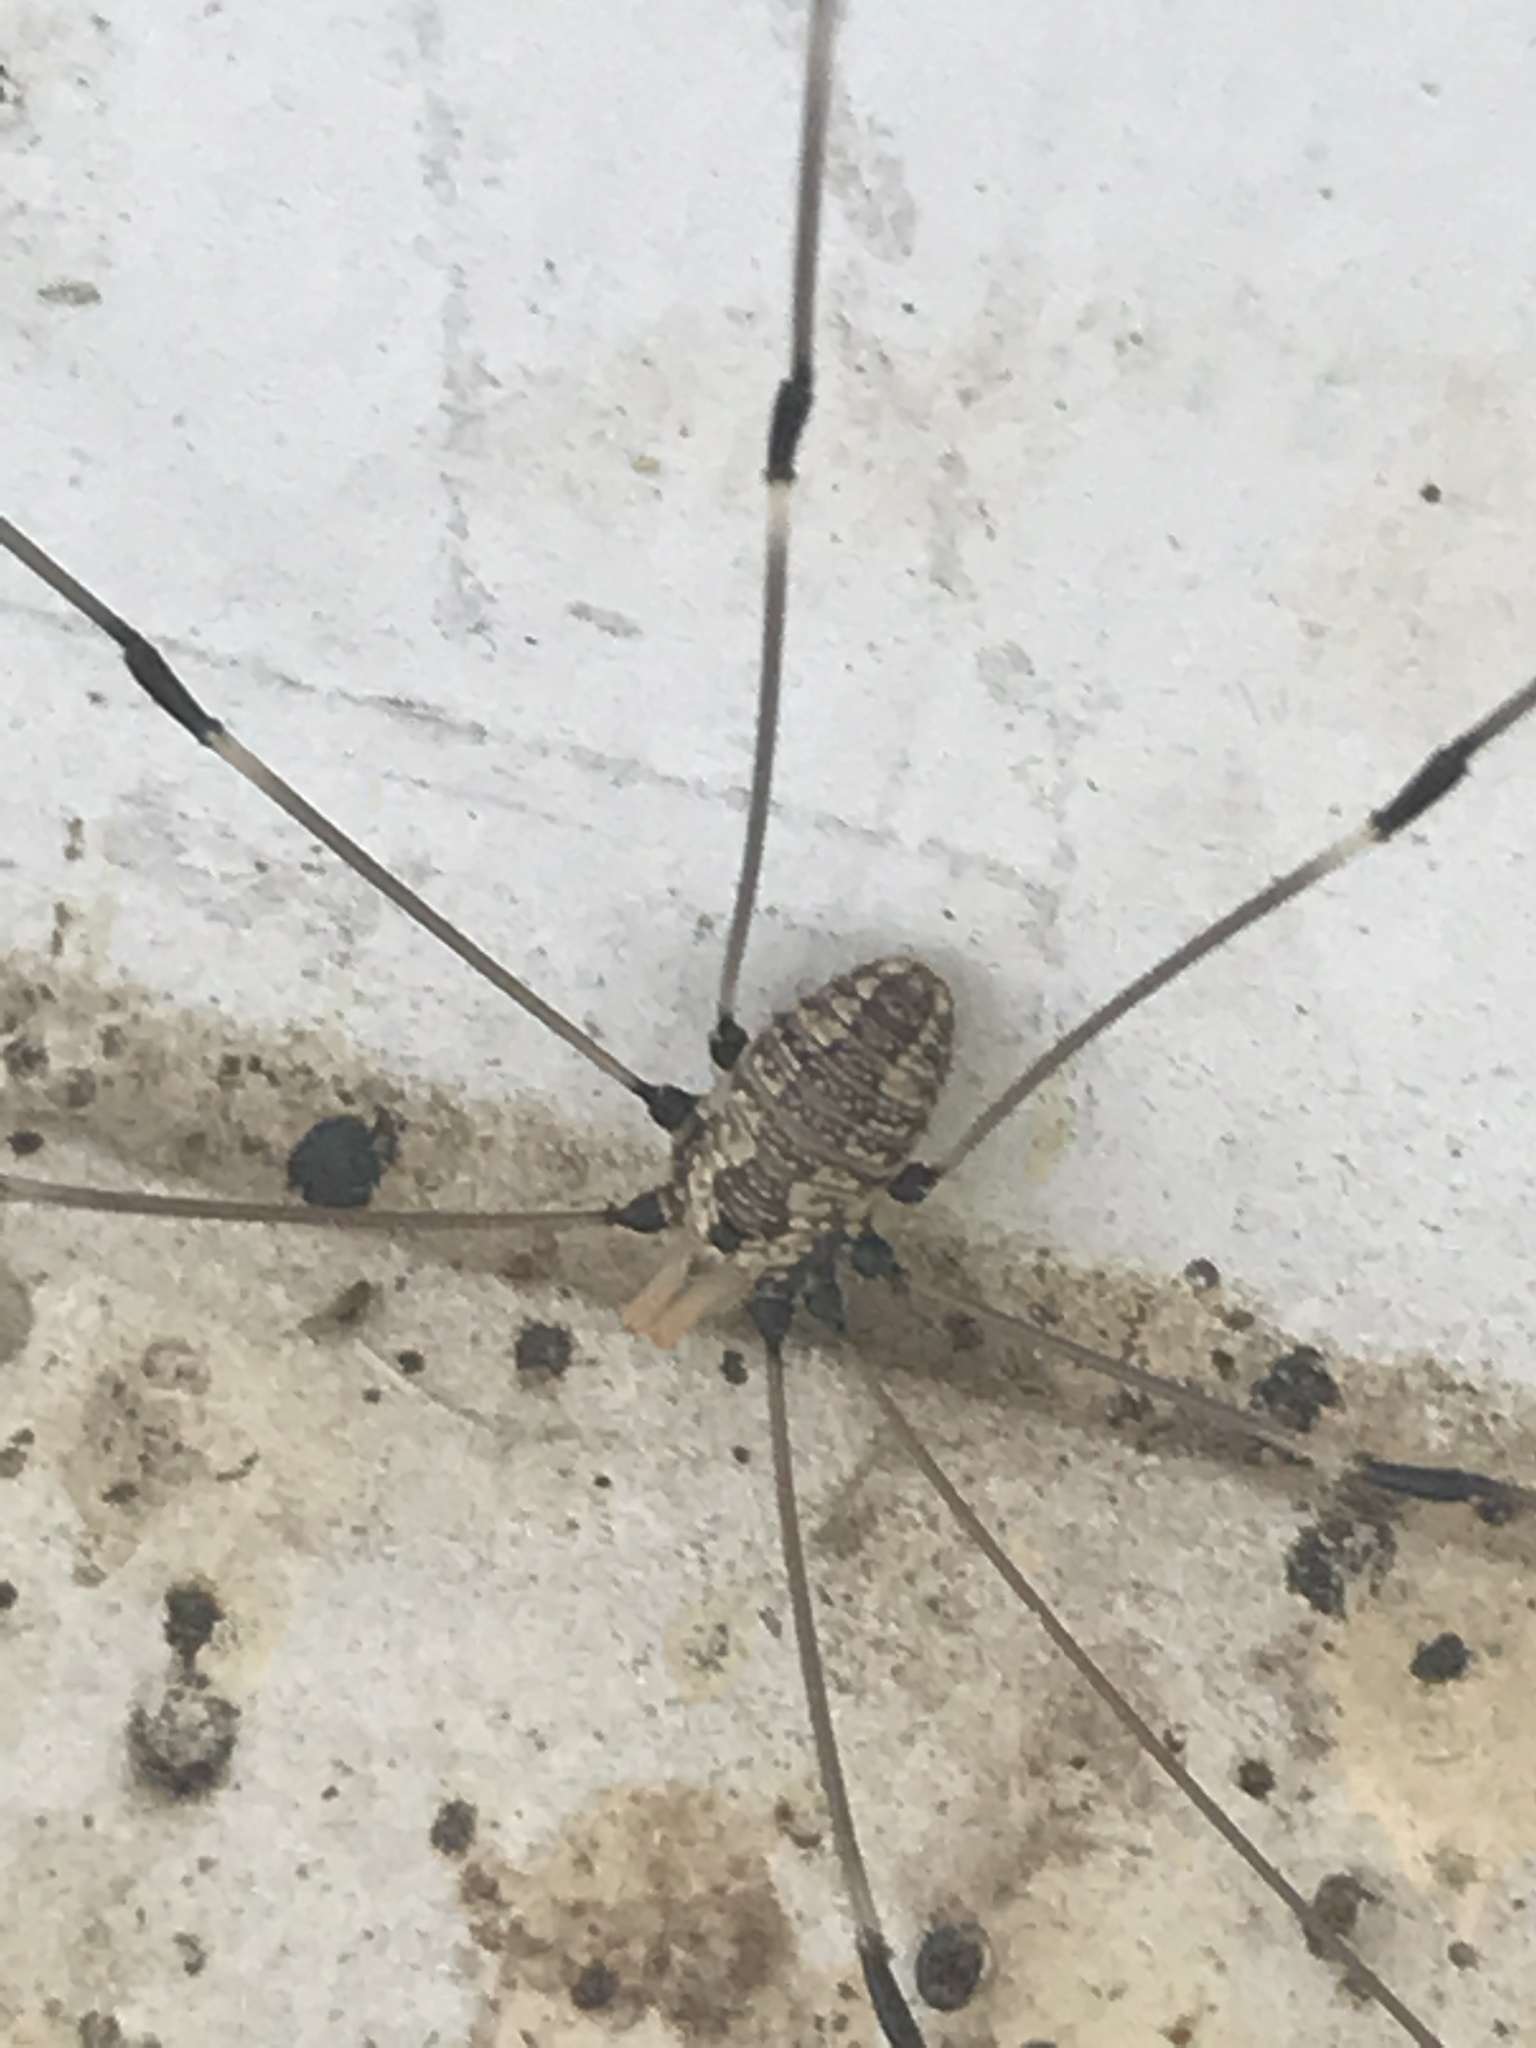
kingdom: Animalia
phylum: Arthropoda
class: Arachnida
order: Opiliones
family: Sclerosomatidae
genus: Leiobunum
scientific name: Leiobunum vittatum
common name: Eastern harvestman
